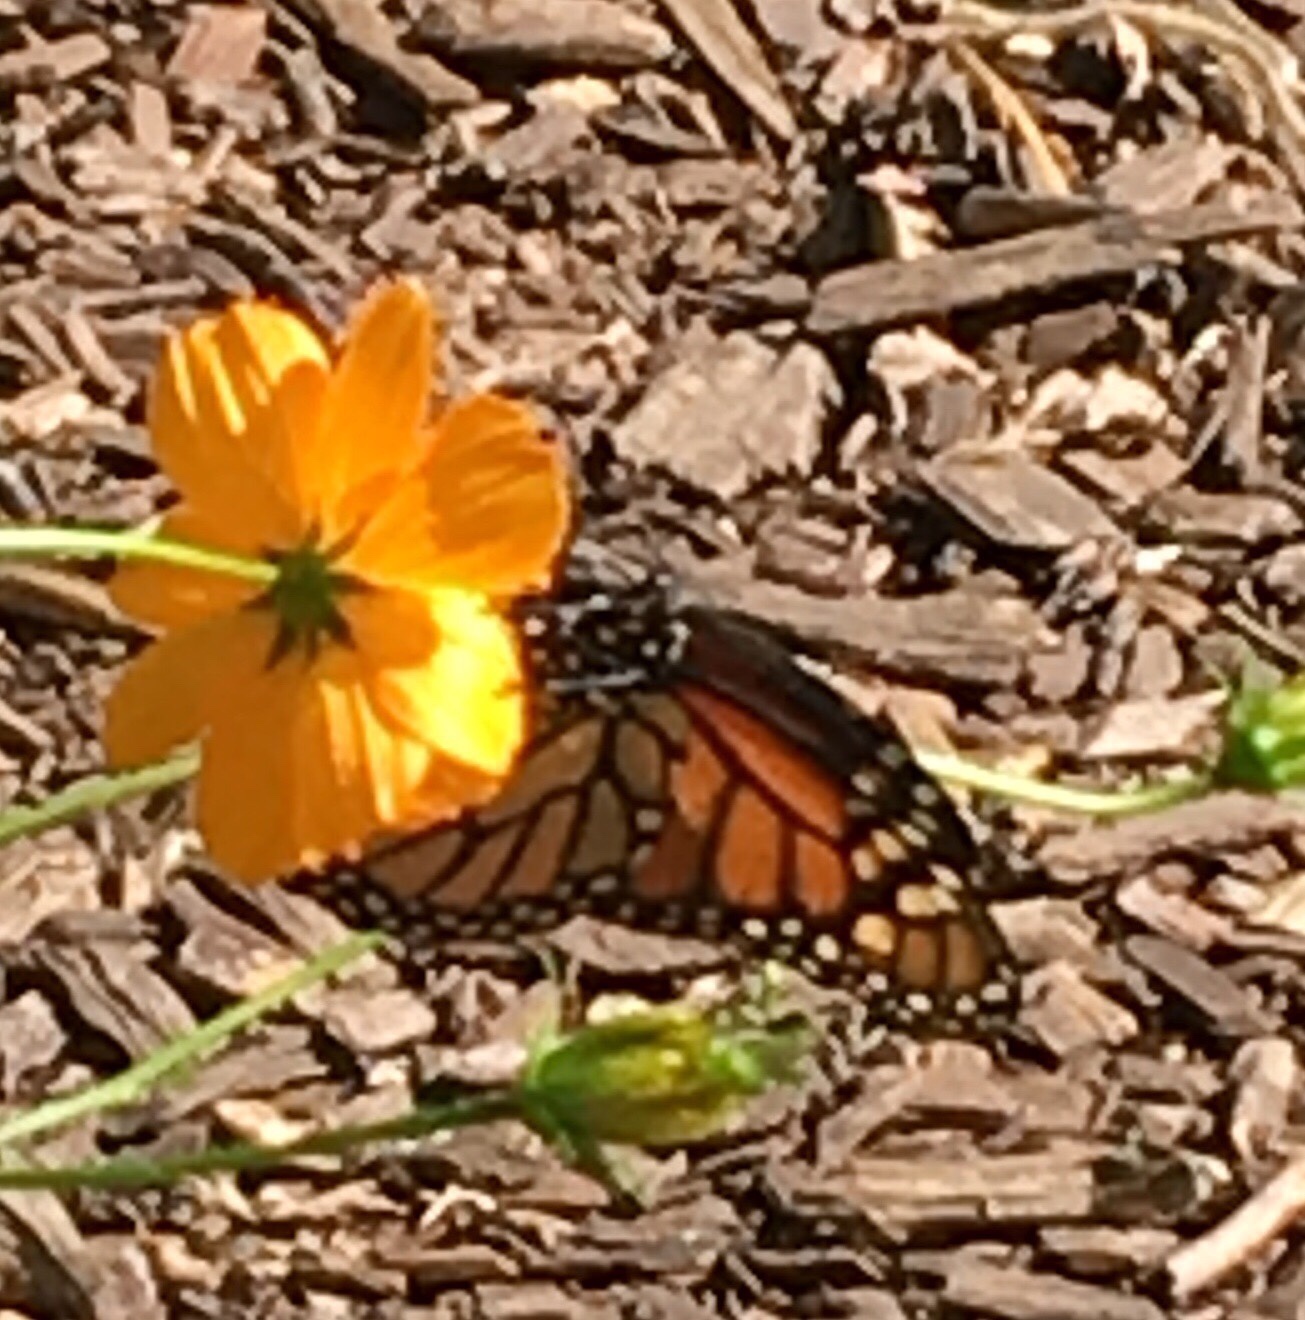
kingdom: Animalia
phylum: Arthropoda
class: Insecta
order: Lepidoptera
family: Nymphalidae
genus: Danaus
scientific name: Danaus plexippus
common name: Monarch
